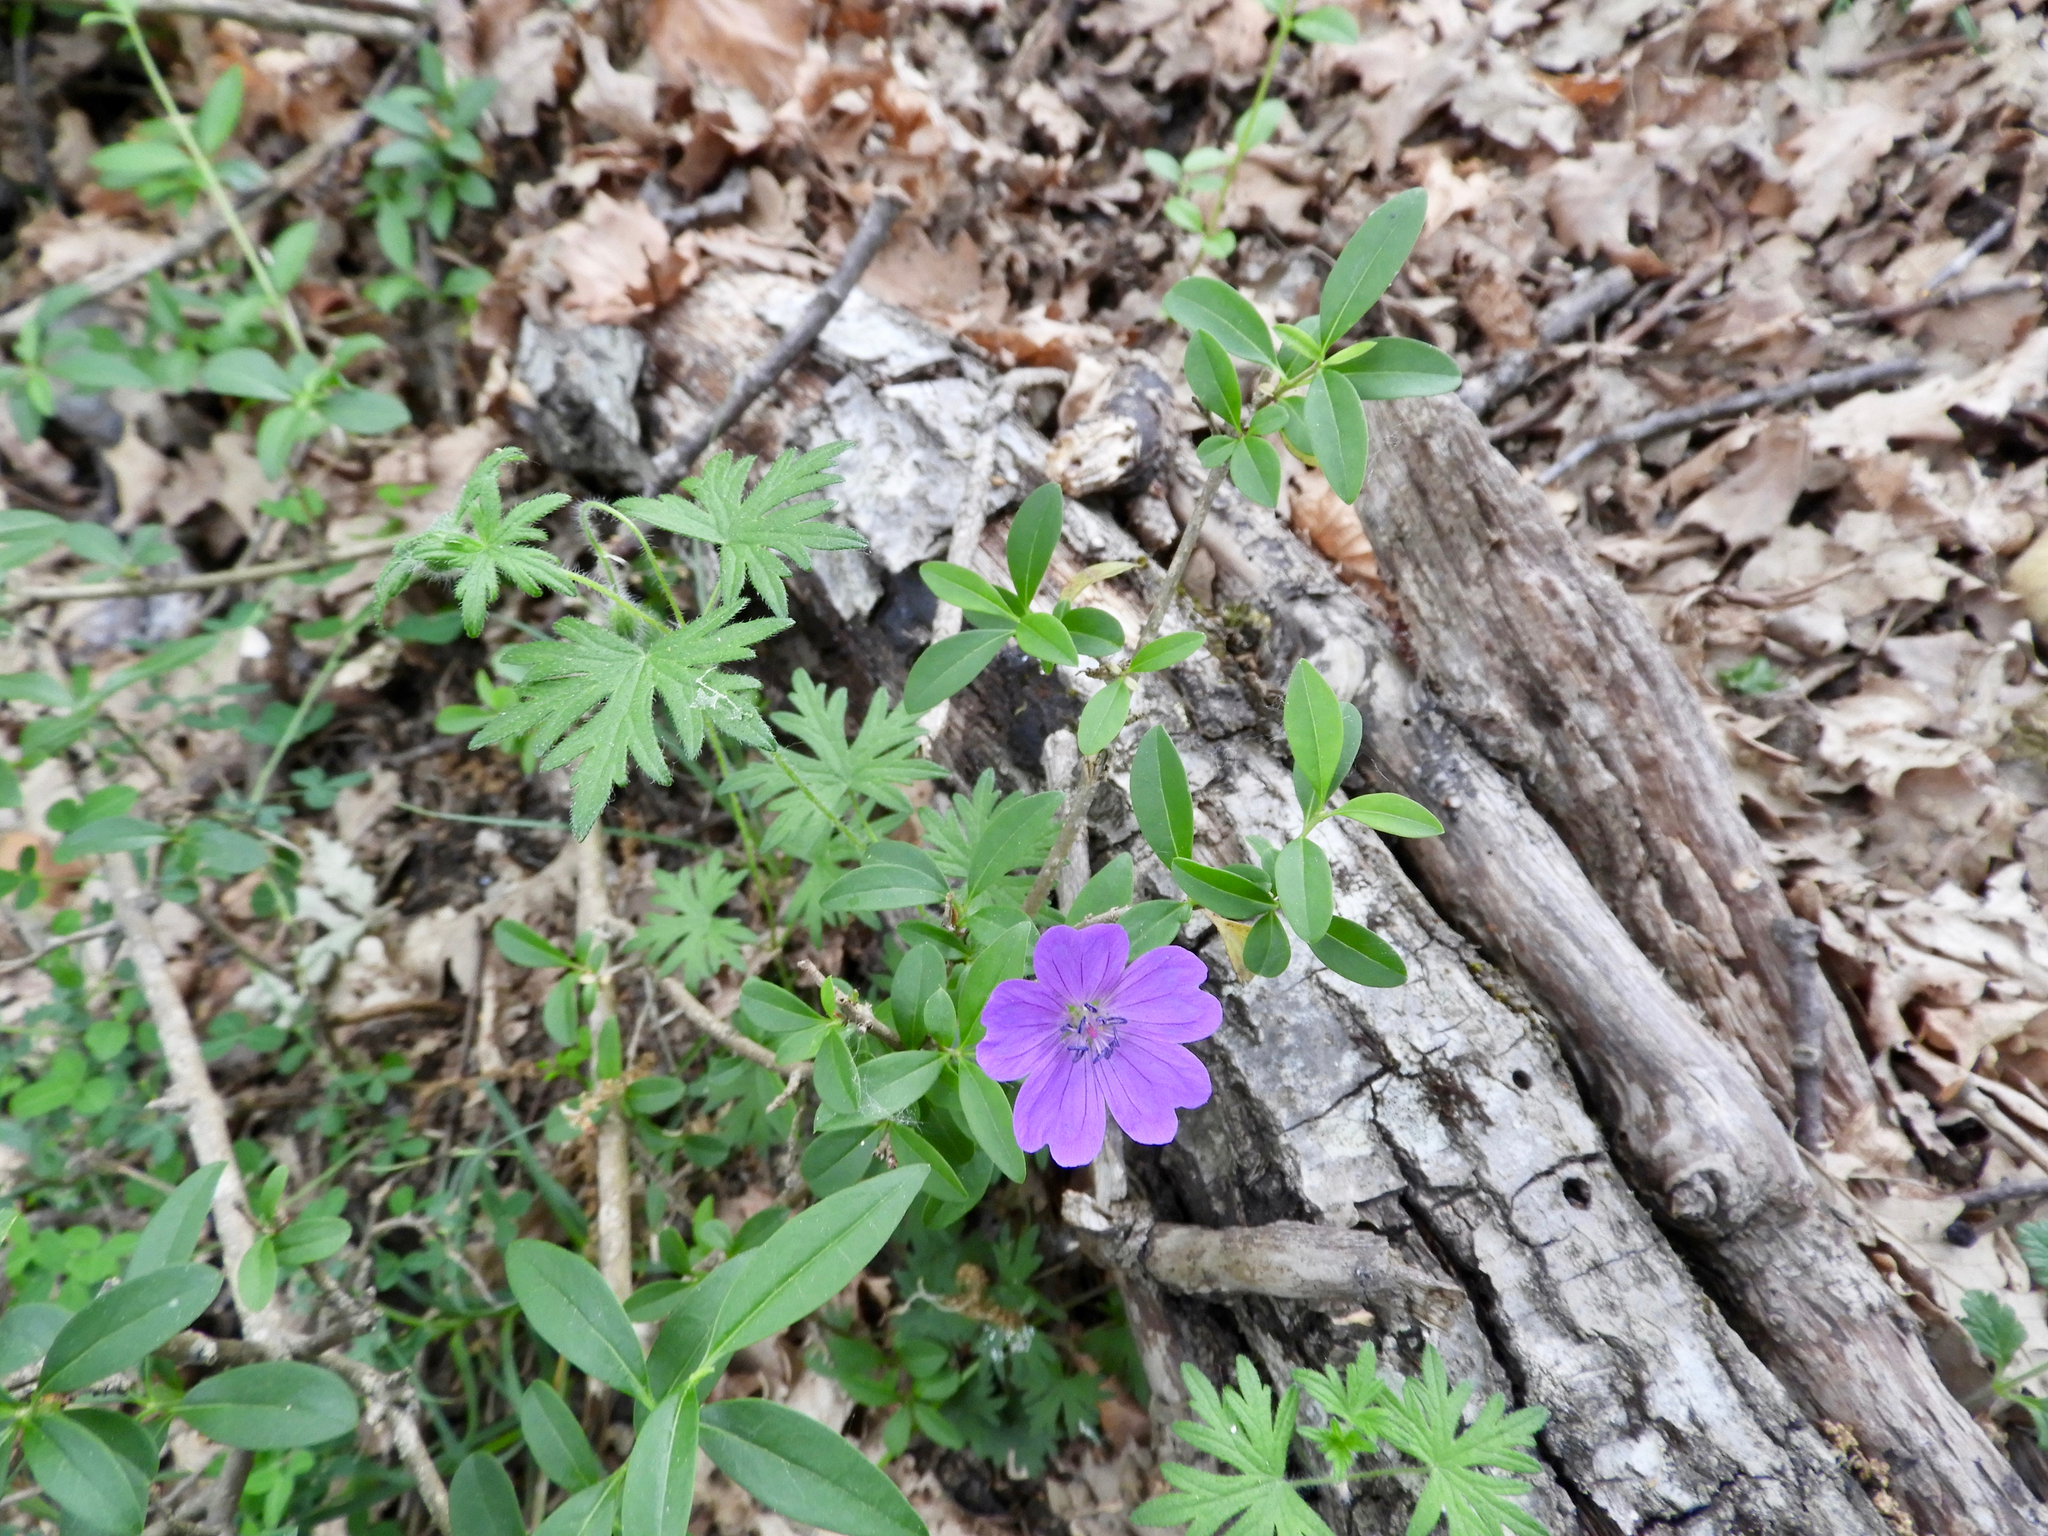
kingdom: Plantae
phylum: Tracheophyta
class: Magnoliopsida
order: Geraniales
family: Geraniaceae
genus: Geranium
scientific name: Geranium sanguineum
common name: Bloody crane's-bill
